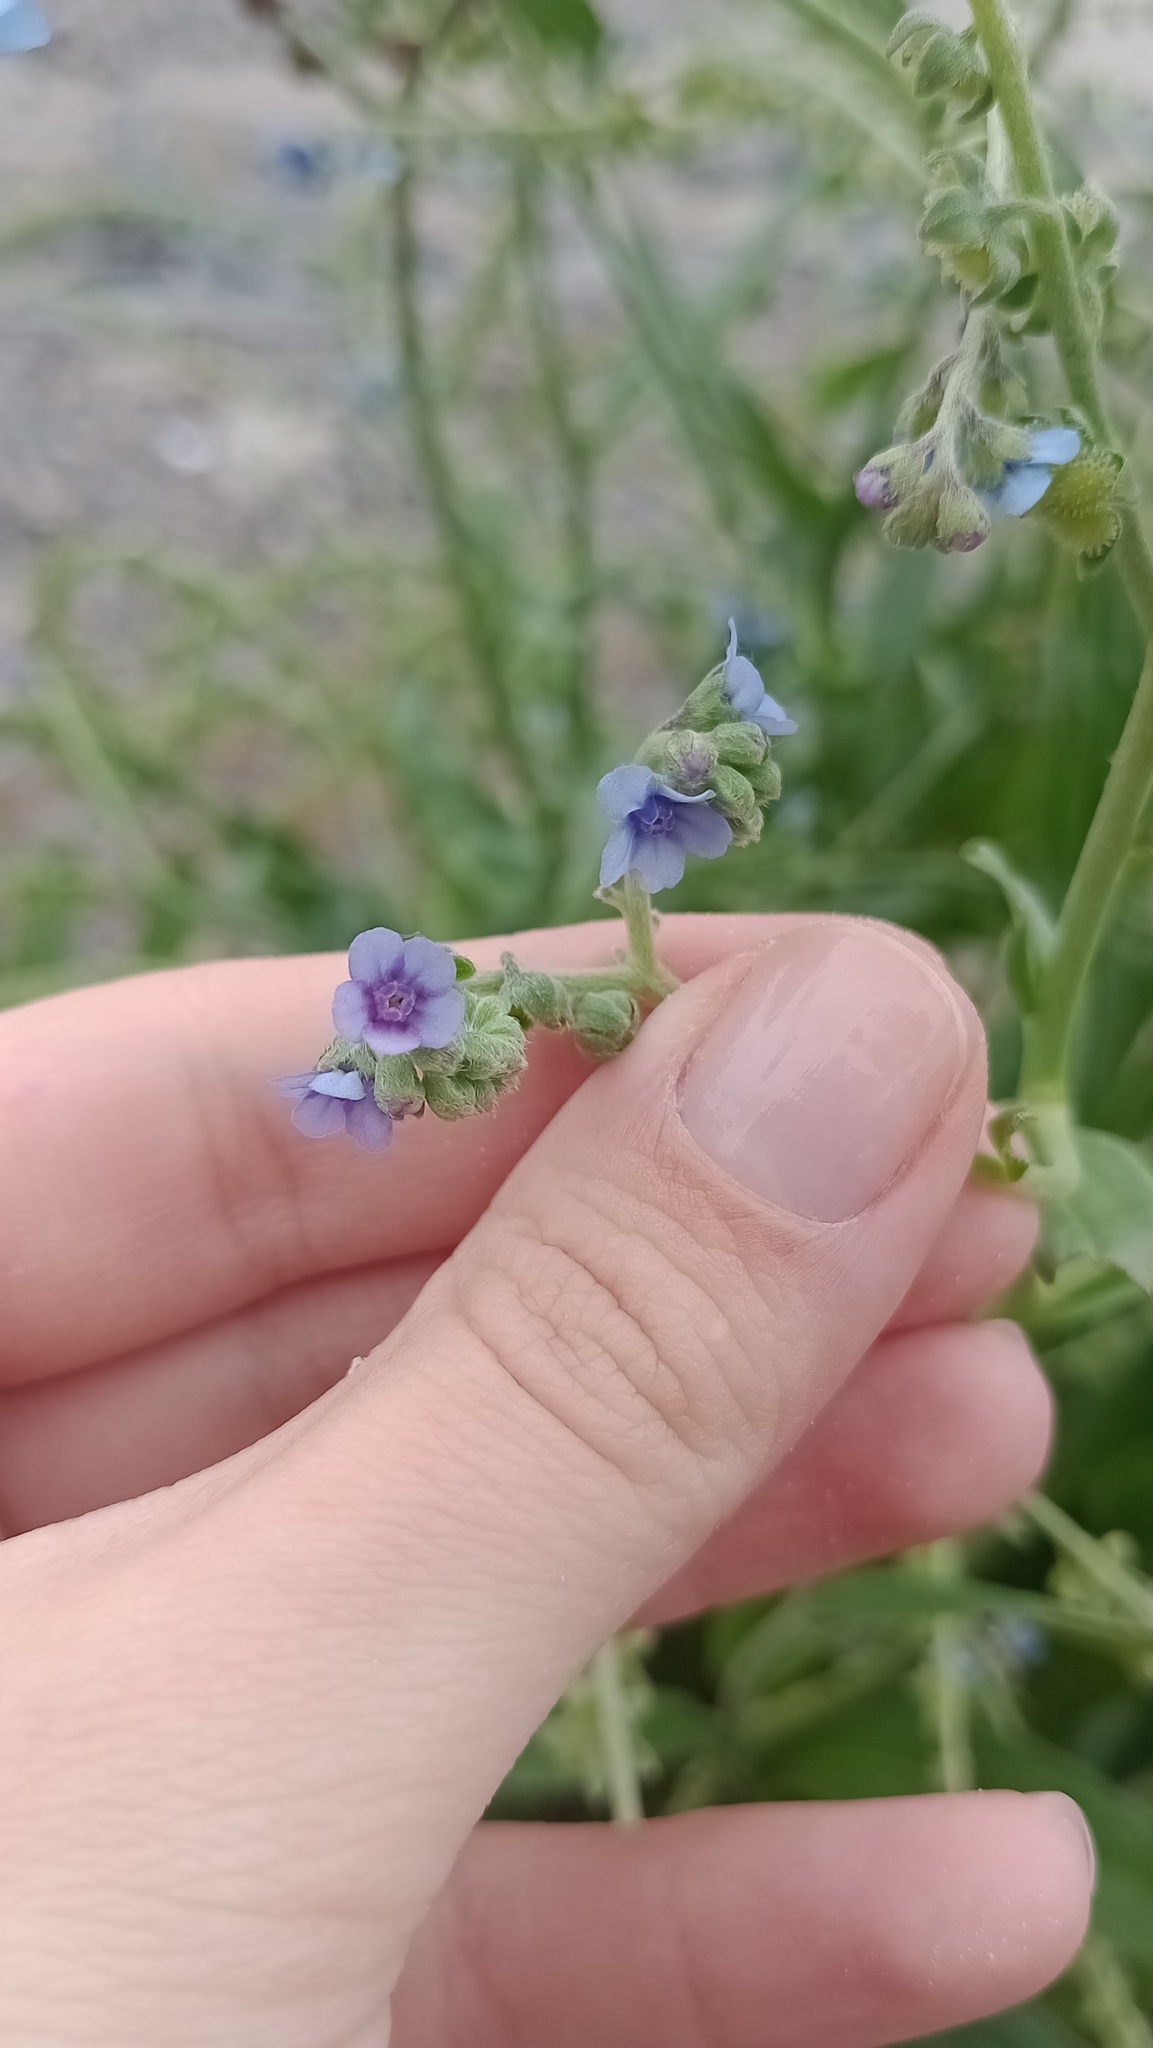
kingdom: Plantae
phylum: Tracheophyta
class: Magnoliopsida
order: Boraginales
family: Boraginaceae
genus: Cynoglossum
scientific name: Cynoglossum amabile
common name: Chinese hound's tongue
